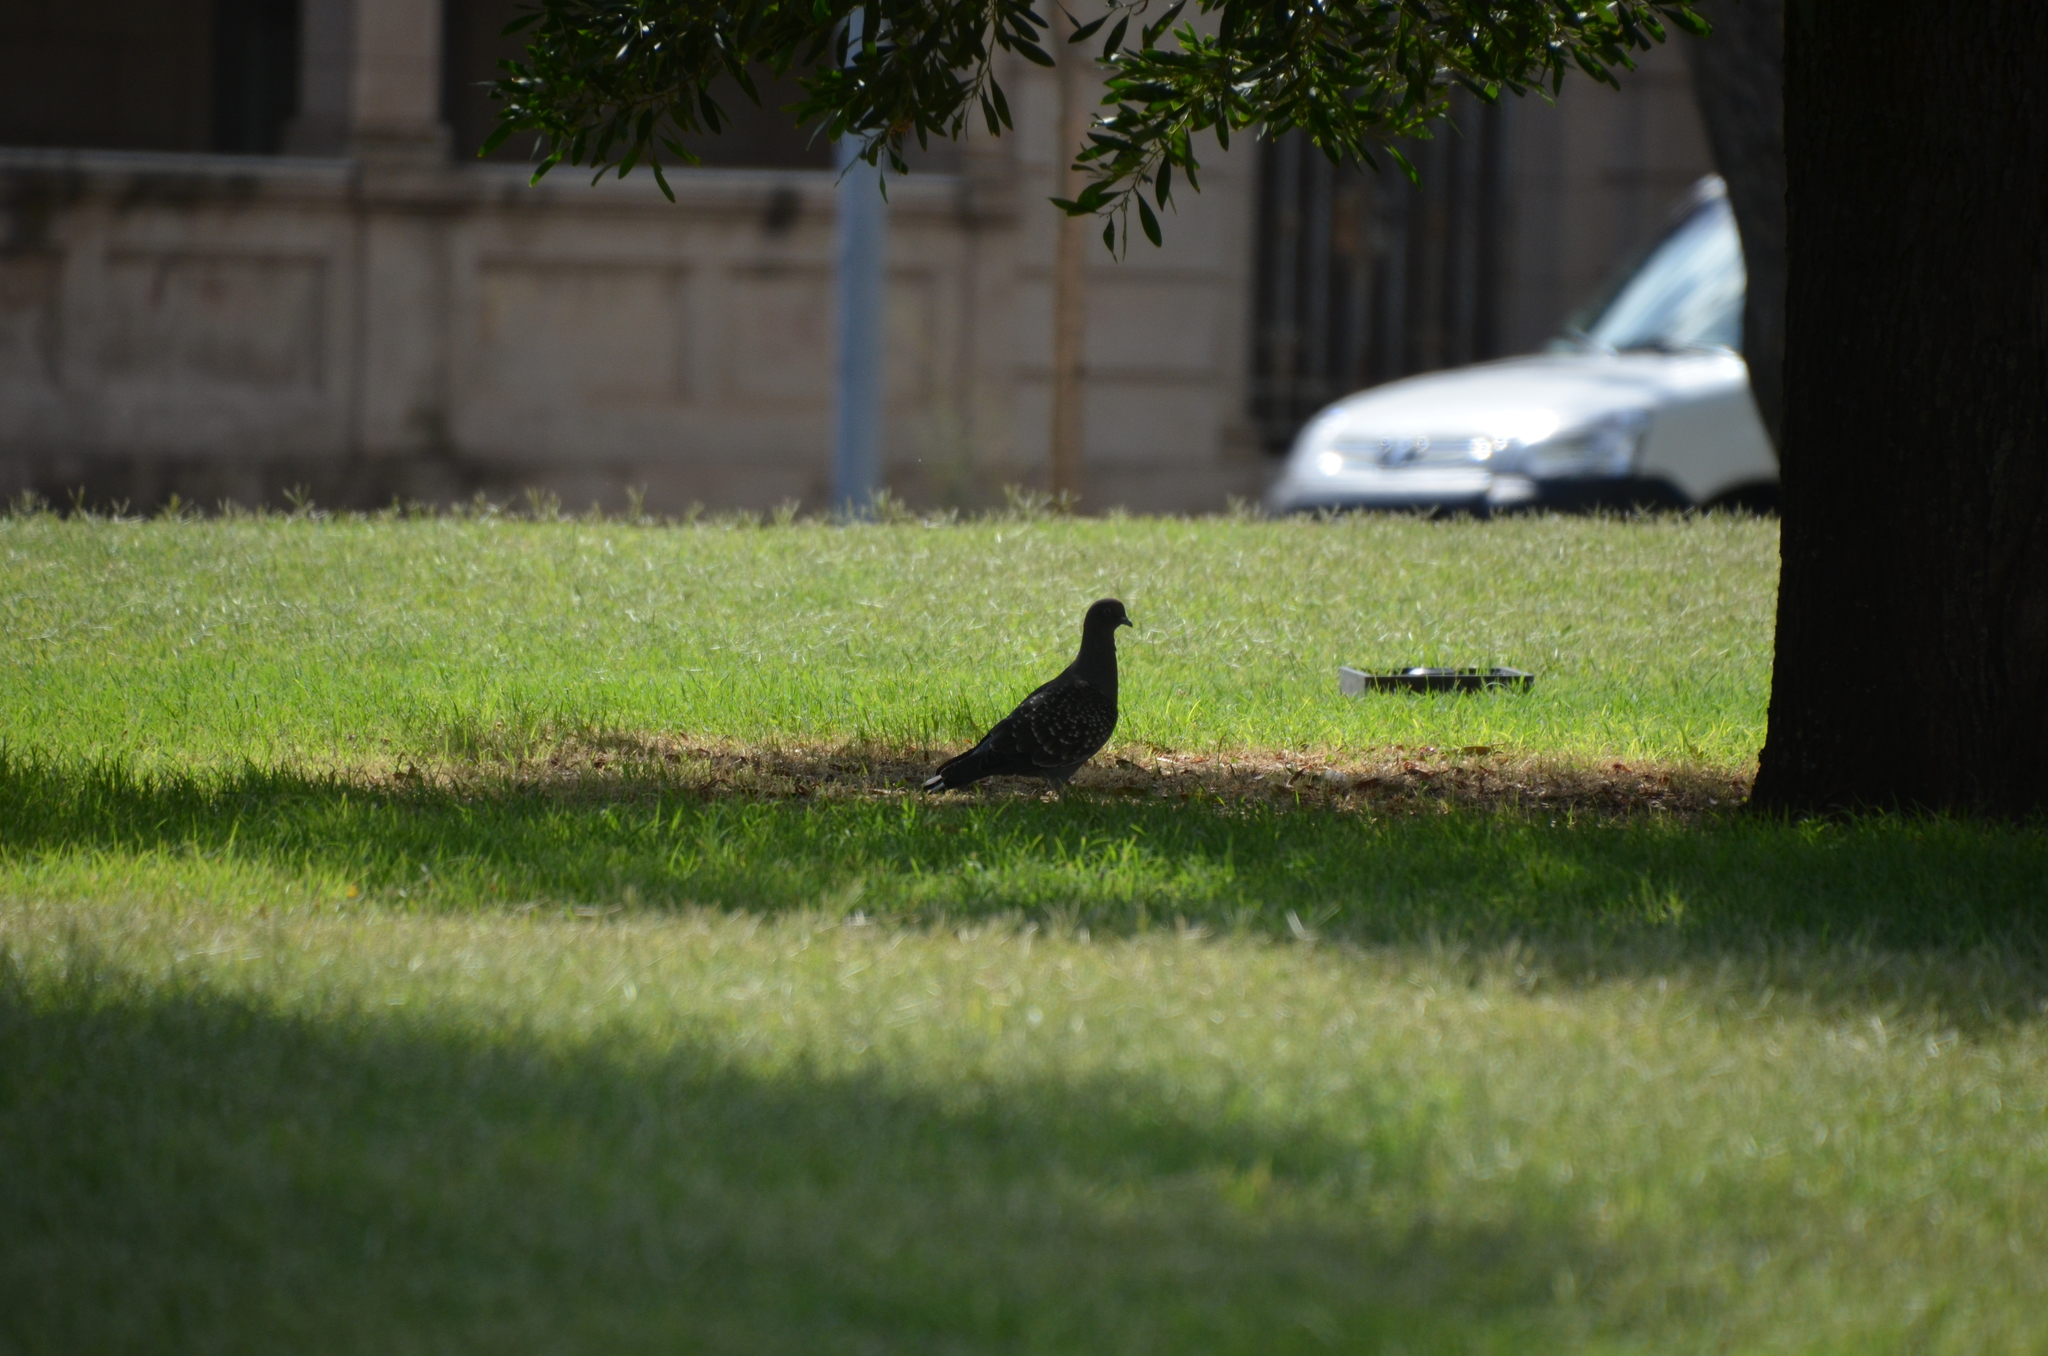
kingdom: Animalia
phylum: Chordata
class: Aves
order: Columbiformes
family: Columbidae
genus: Patagioenas
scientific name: Patagioenas maculosa
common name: Spot-winged pigeon
